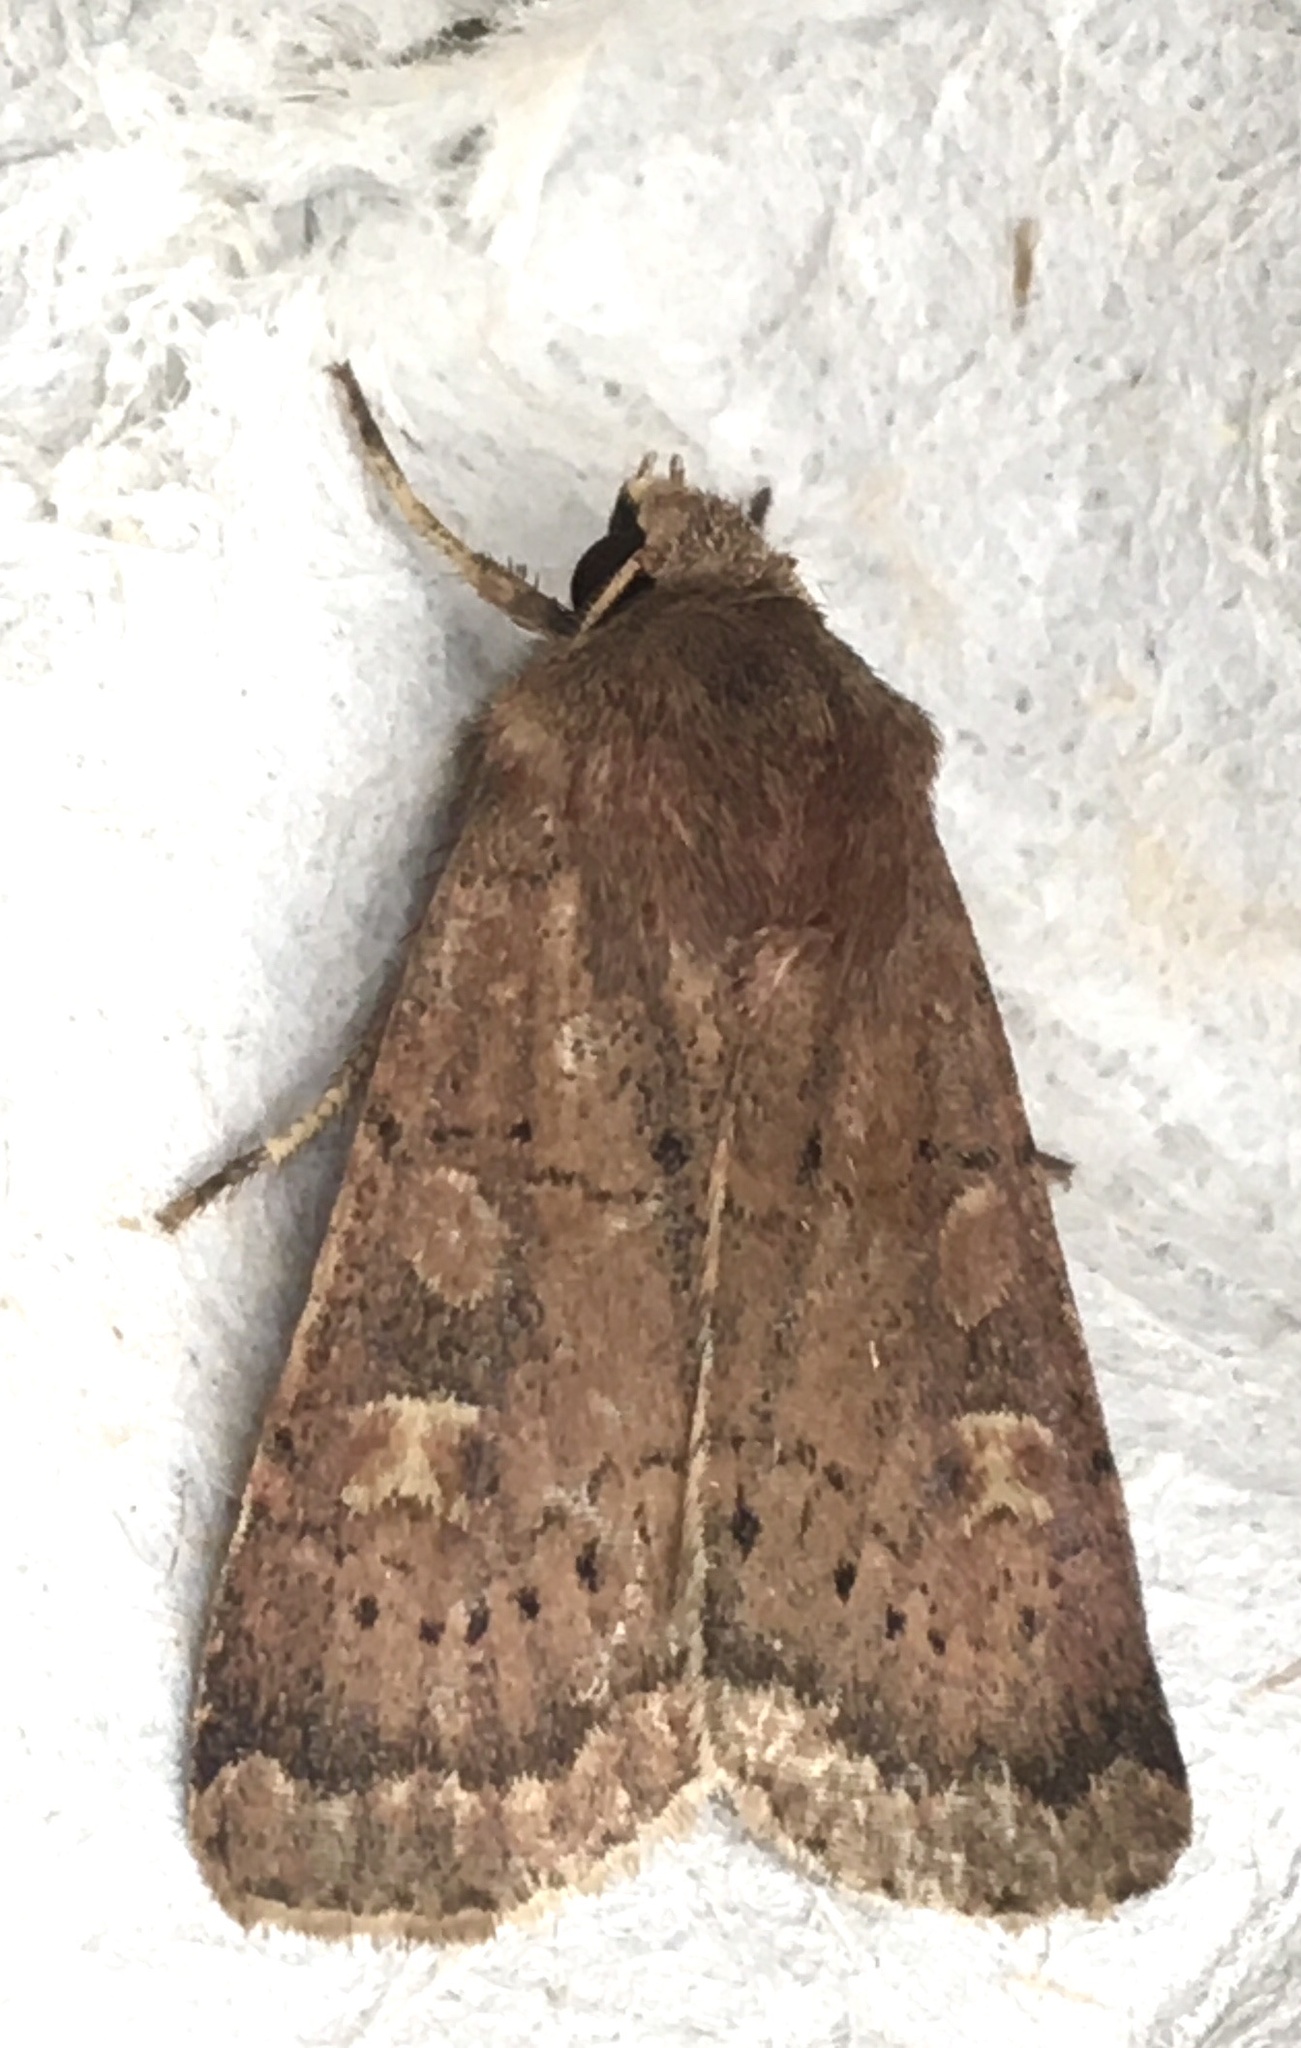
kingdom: Animalia
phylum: Arthropoda
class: Insecta
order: Lepidoptera
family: Noctuidae
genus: Xestia
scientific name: Xestia xanthographa
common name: Square-spot rustic
